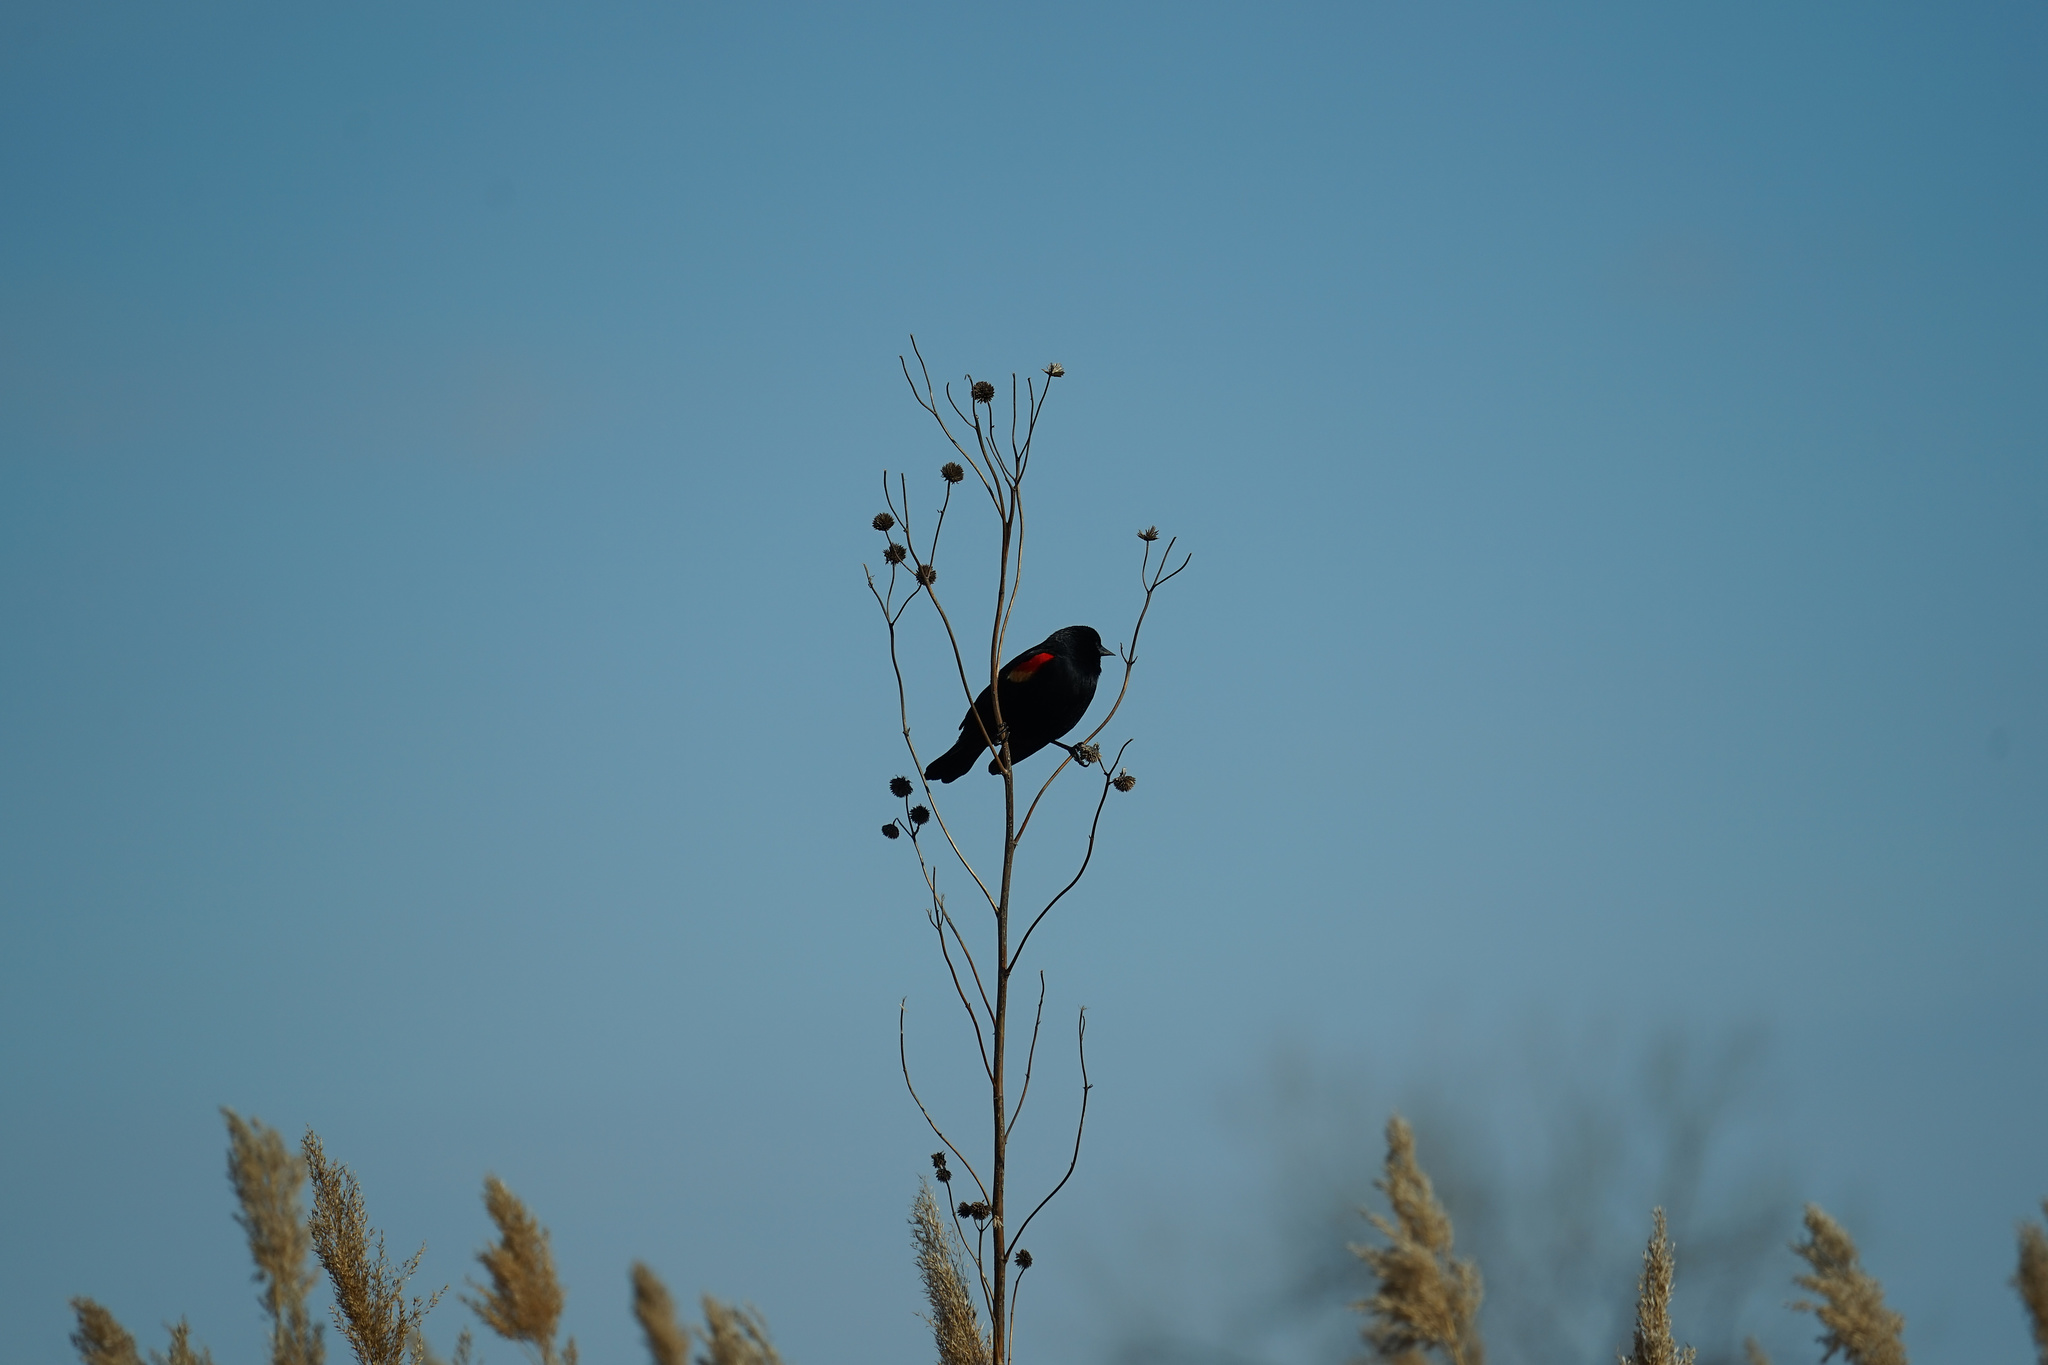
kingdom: Animalia
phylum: Chordata
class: Aves
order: Passeriformes
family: Icteridae
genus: Agelaius
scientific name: Agelaius phoeniceus
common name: Red-winged blackbird
